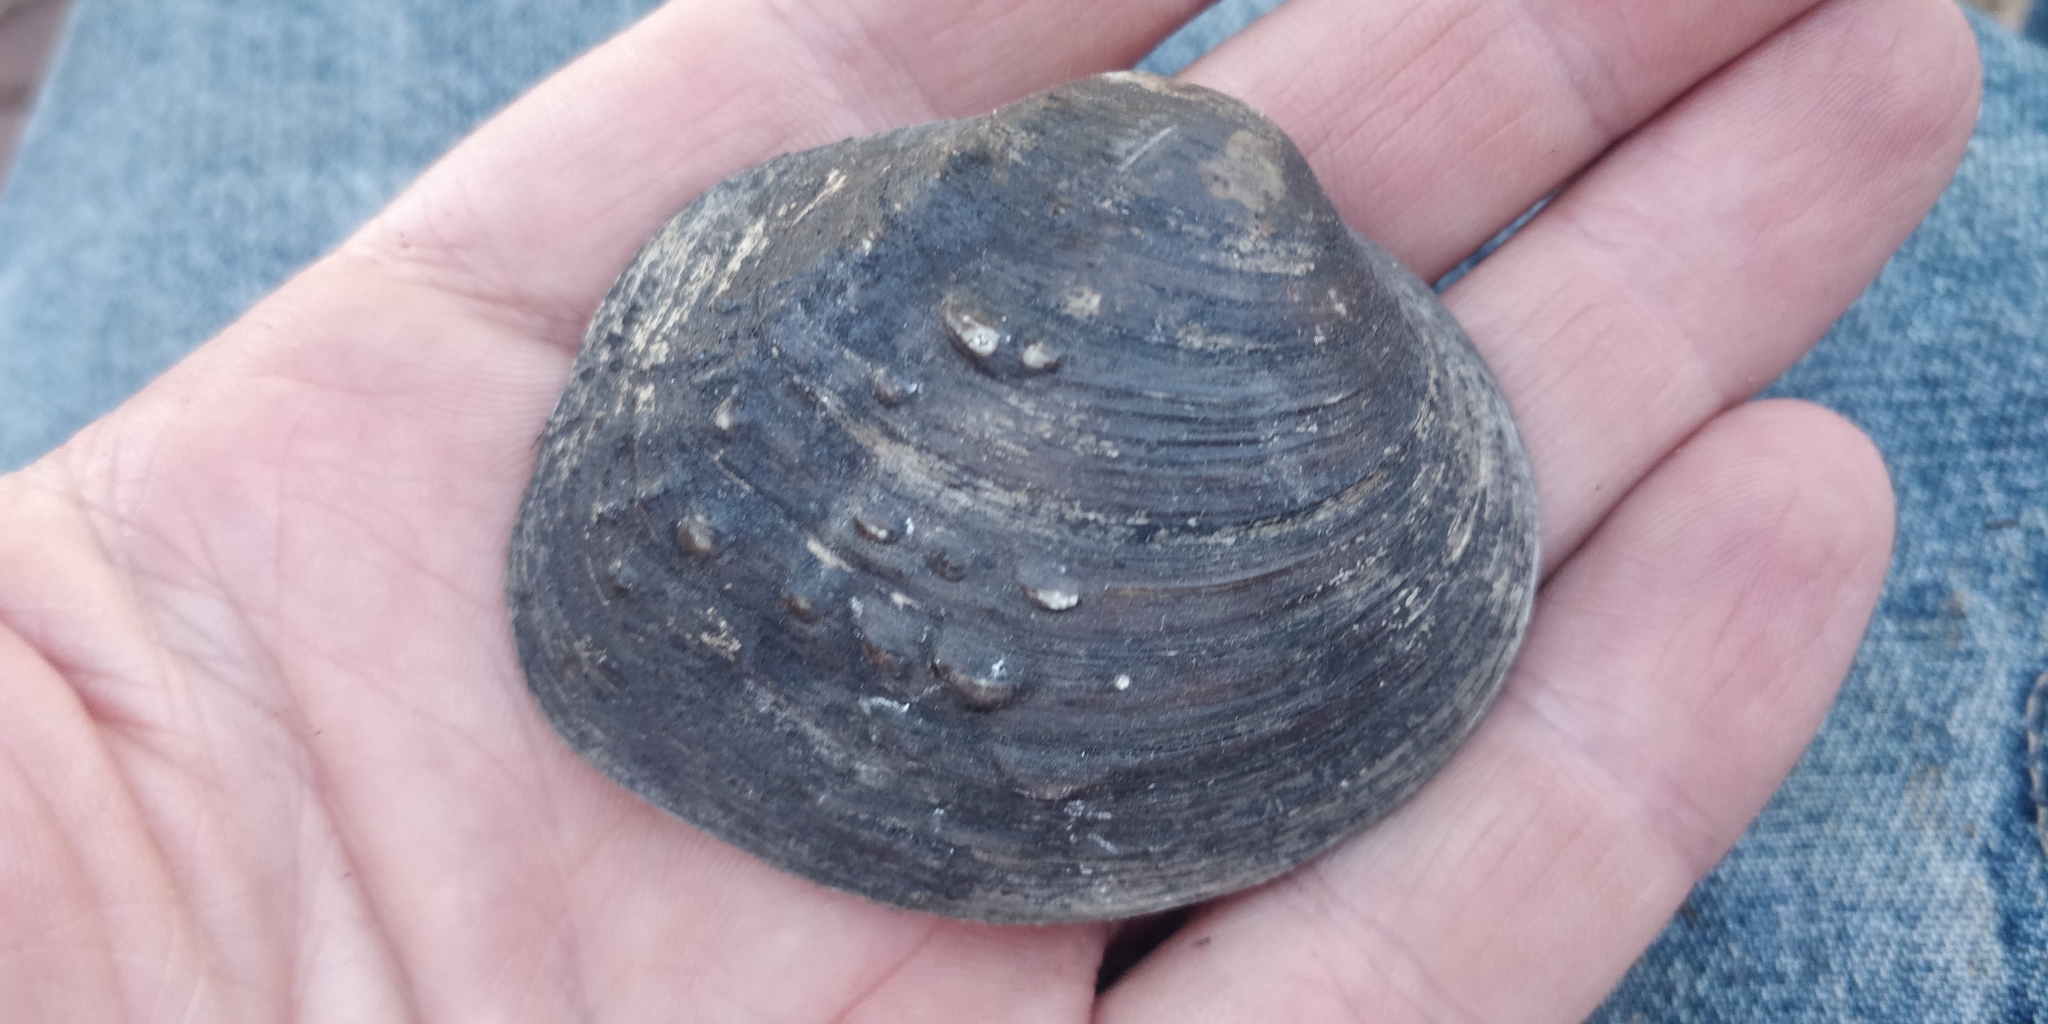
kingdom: Animalia
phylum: Mollusca
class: Bivalvia
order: Unionida
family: Unionidae
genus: Cyclonaias
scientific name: Cyclonaias pustulosa
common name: Pimpleback
